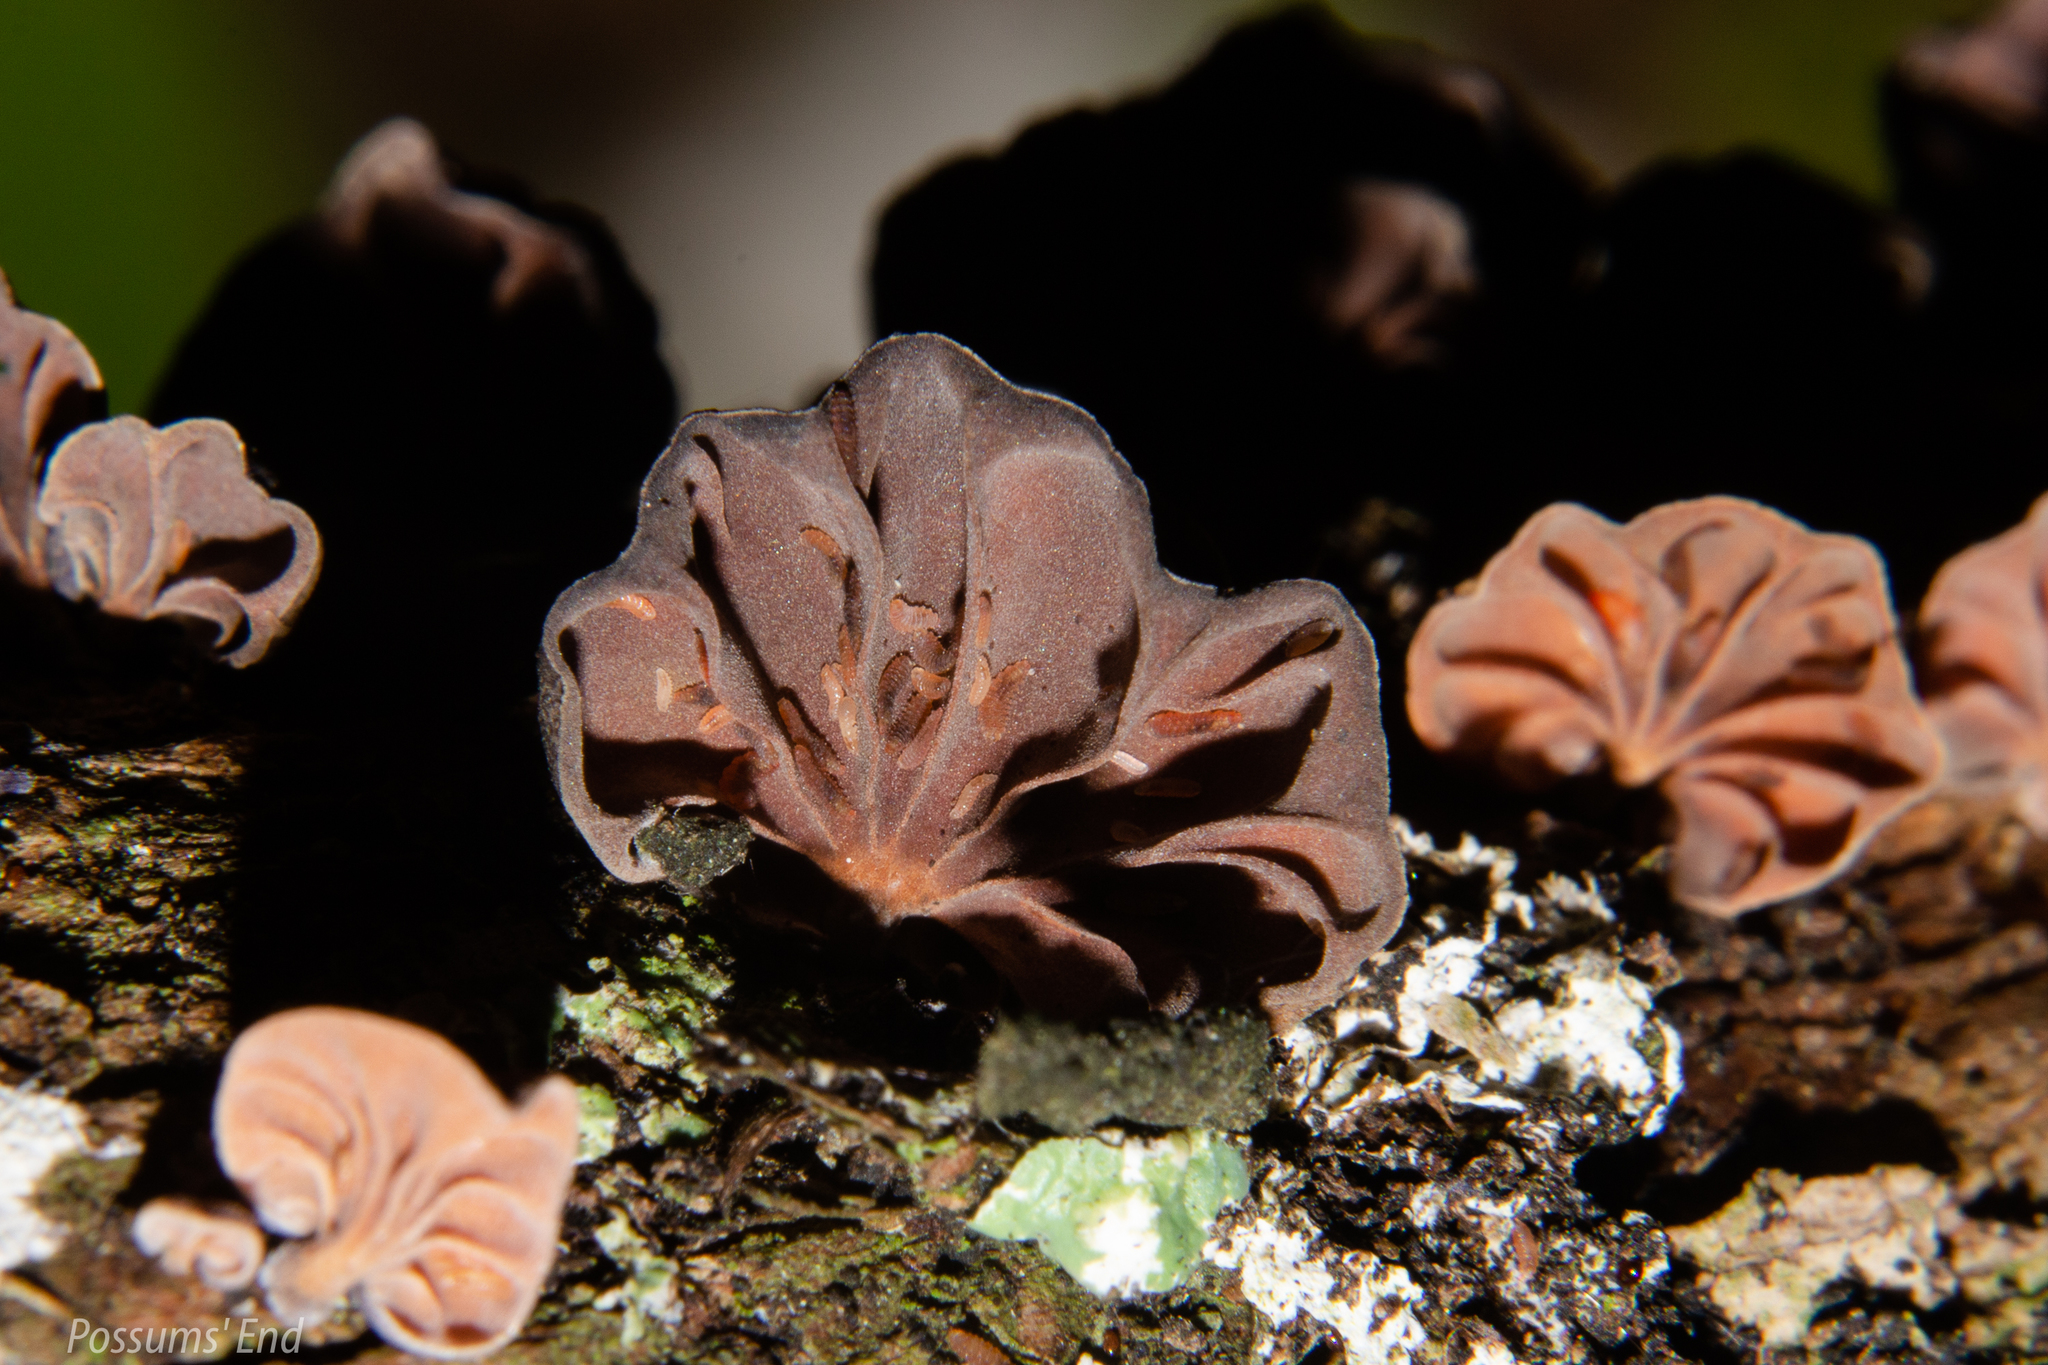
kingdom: Fungi
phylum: Basidiomycota
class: Agaricomycetes
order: Agaricales
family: Omphalotaceae
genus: Anthracophyllum
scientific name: Anthracophyllum archeri
